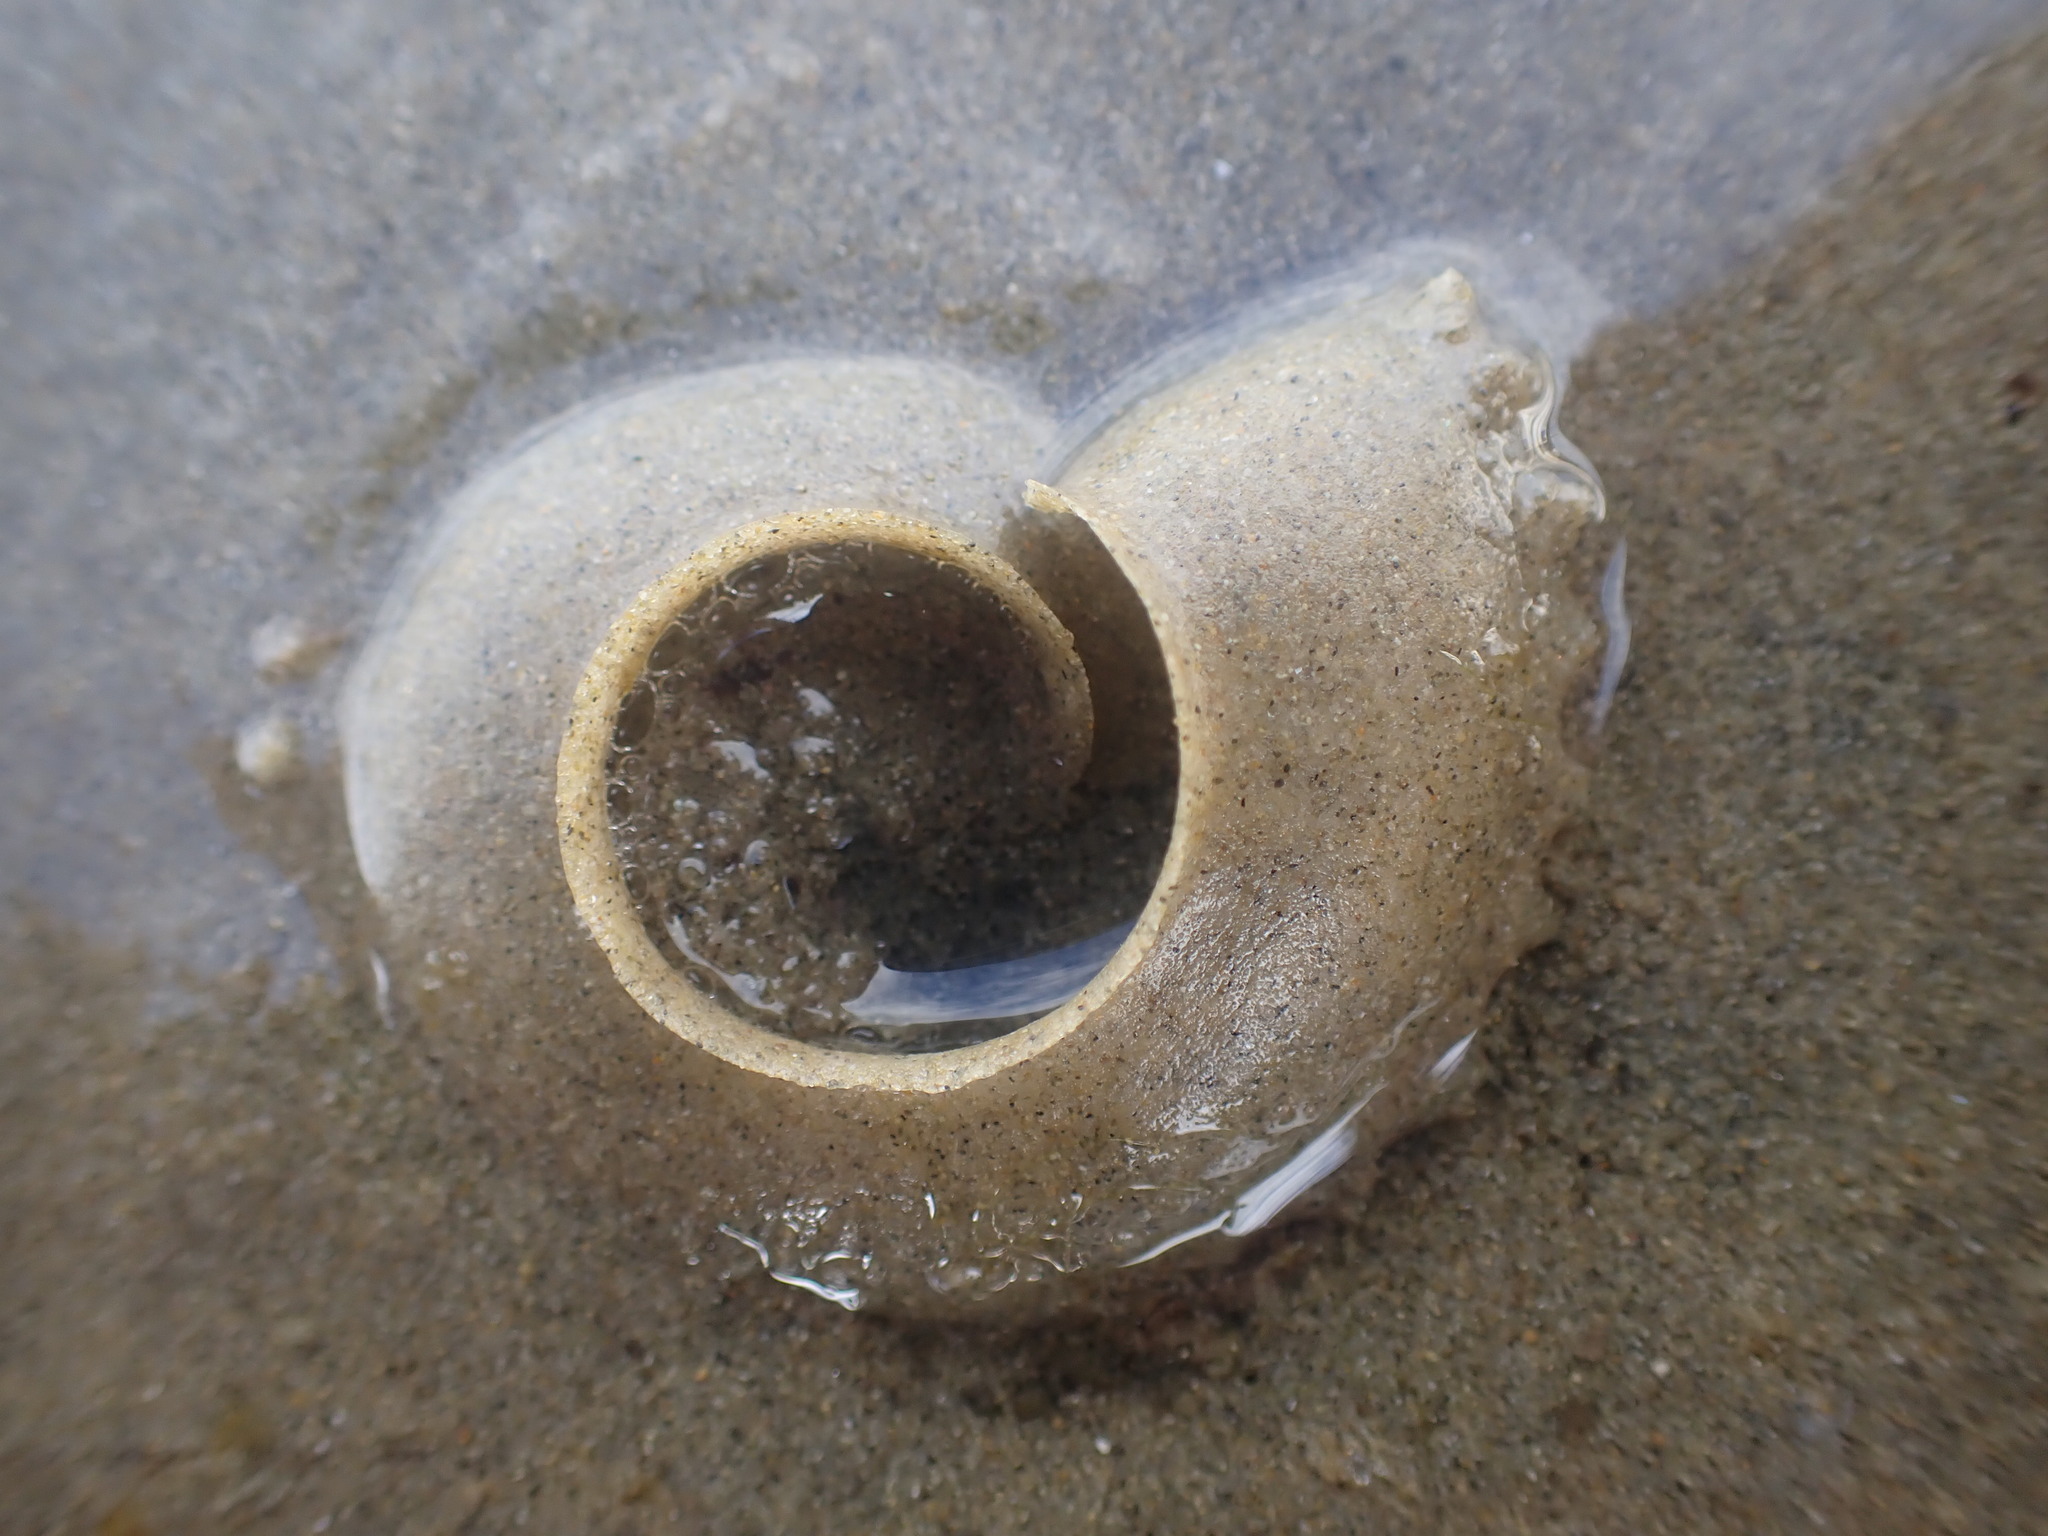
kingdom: Animalia
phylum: Mollusca
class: Gastropoda
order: Littorinimorpha
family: Naticidae
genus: Notocochlis
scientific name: Notocochlis gualteriana
